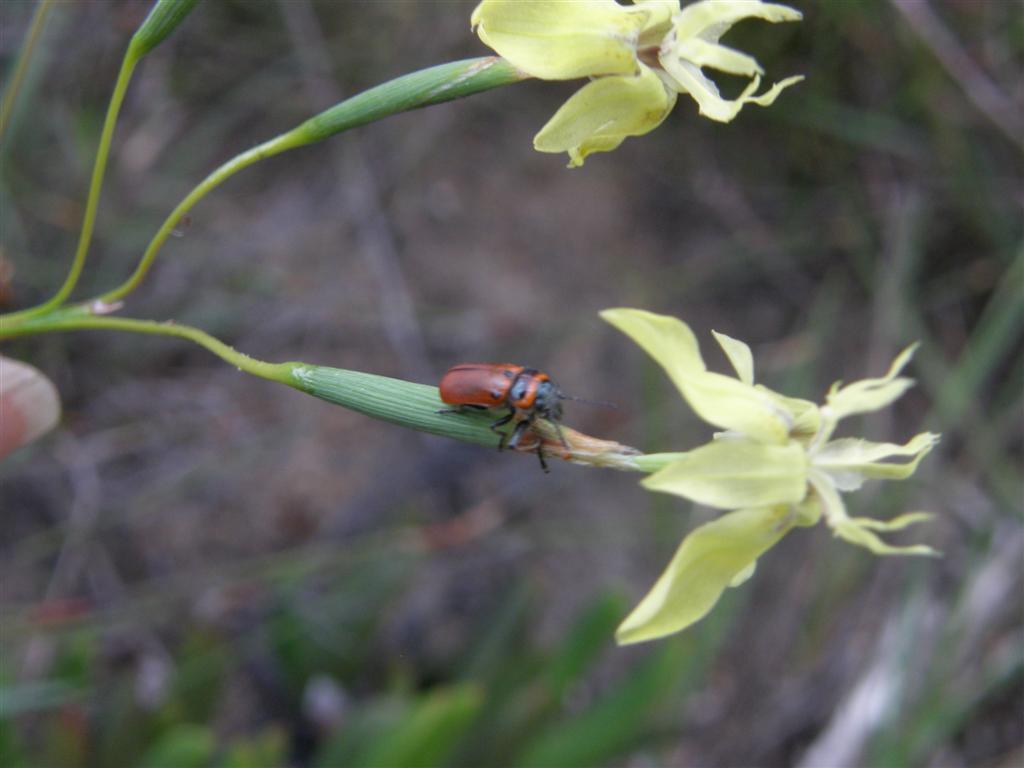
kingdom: Plantae
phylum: Tracheophyta
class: Liliopsida
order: Asparagales
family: Iridaceae
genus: Moraea
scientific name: Moraea bituminosa
